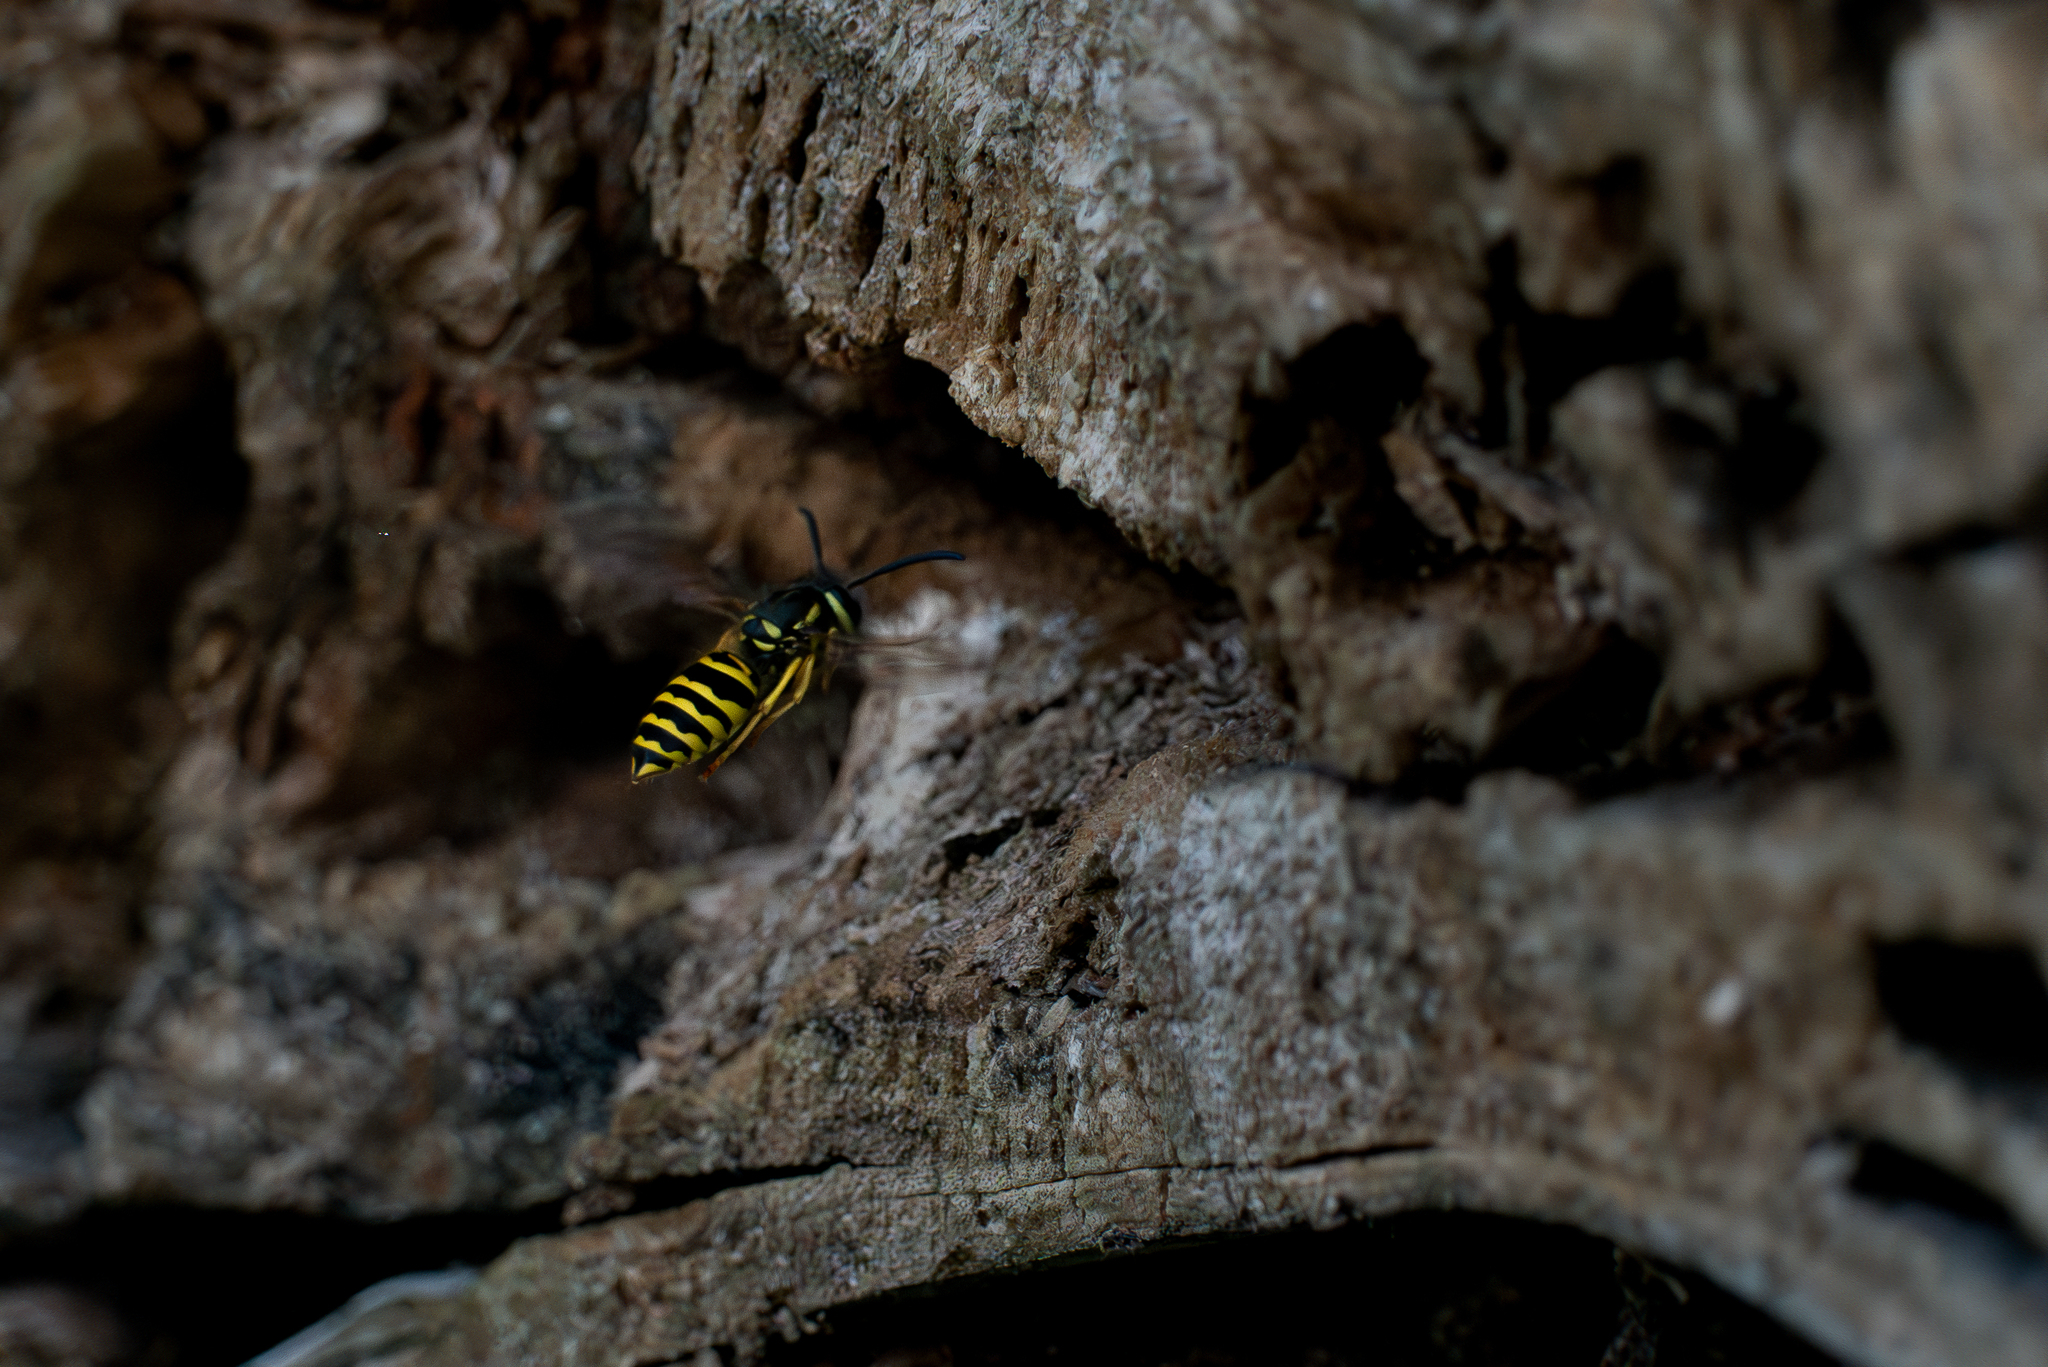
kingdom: Animalia
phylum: Arthropoda
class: Insecta
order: Hymenoptera
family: Vespidae
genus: Vespula
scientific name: Vespula maculifrons
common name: Eastern yellowjacket
